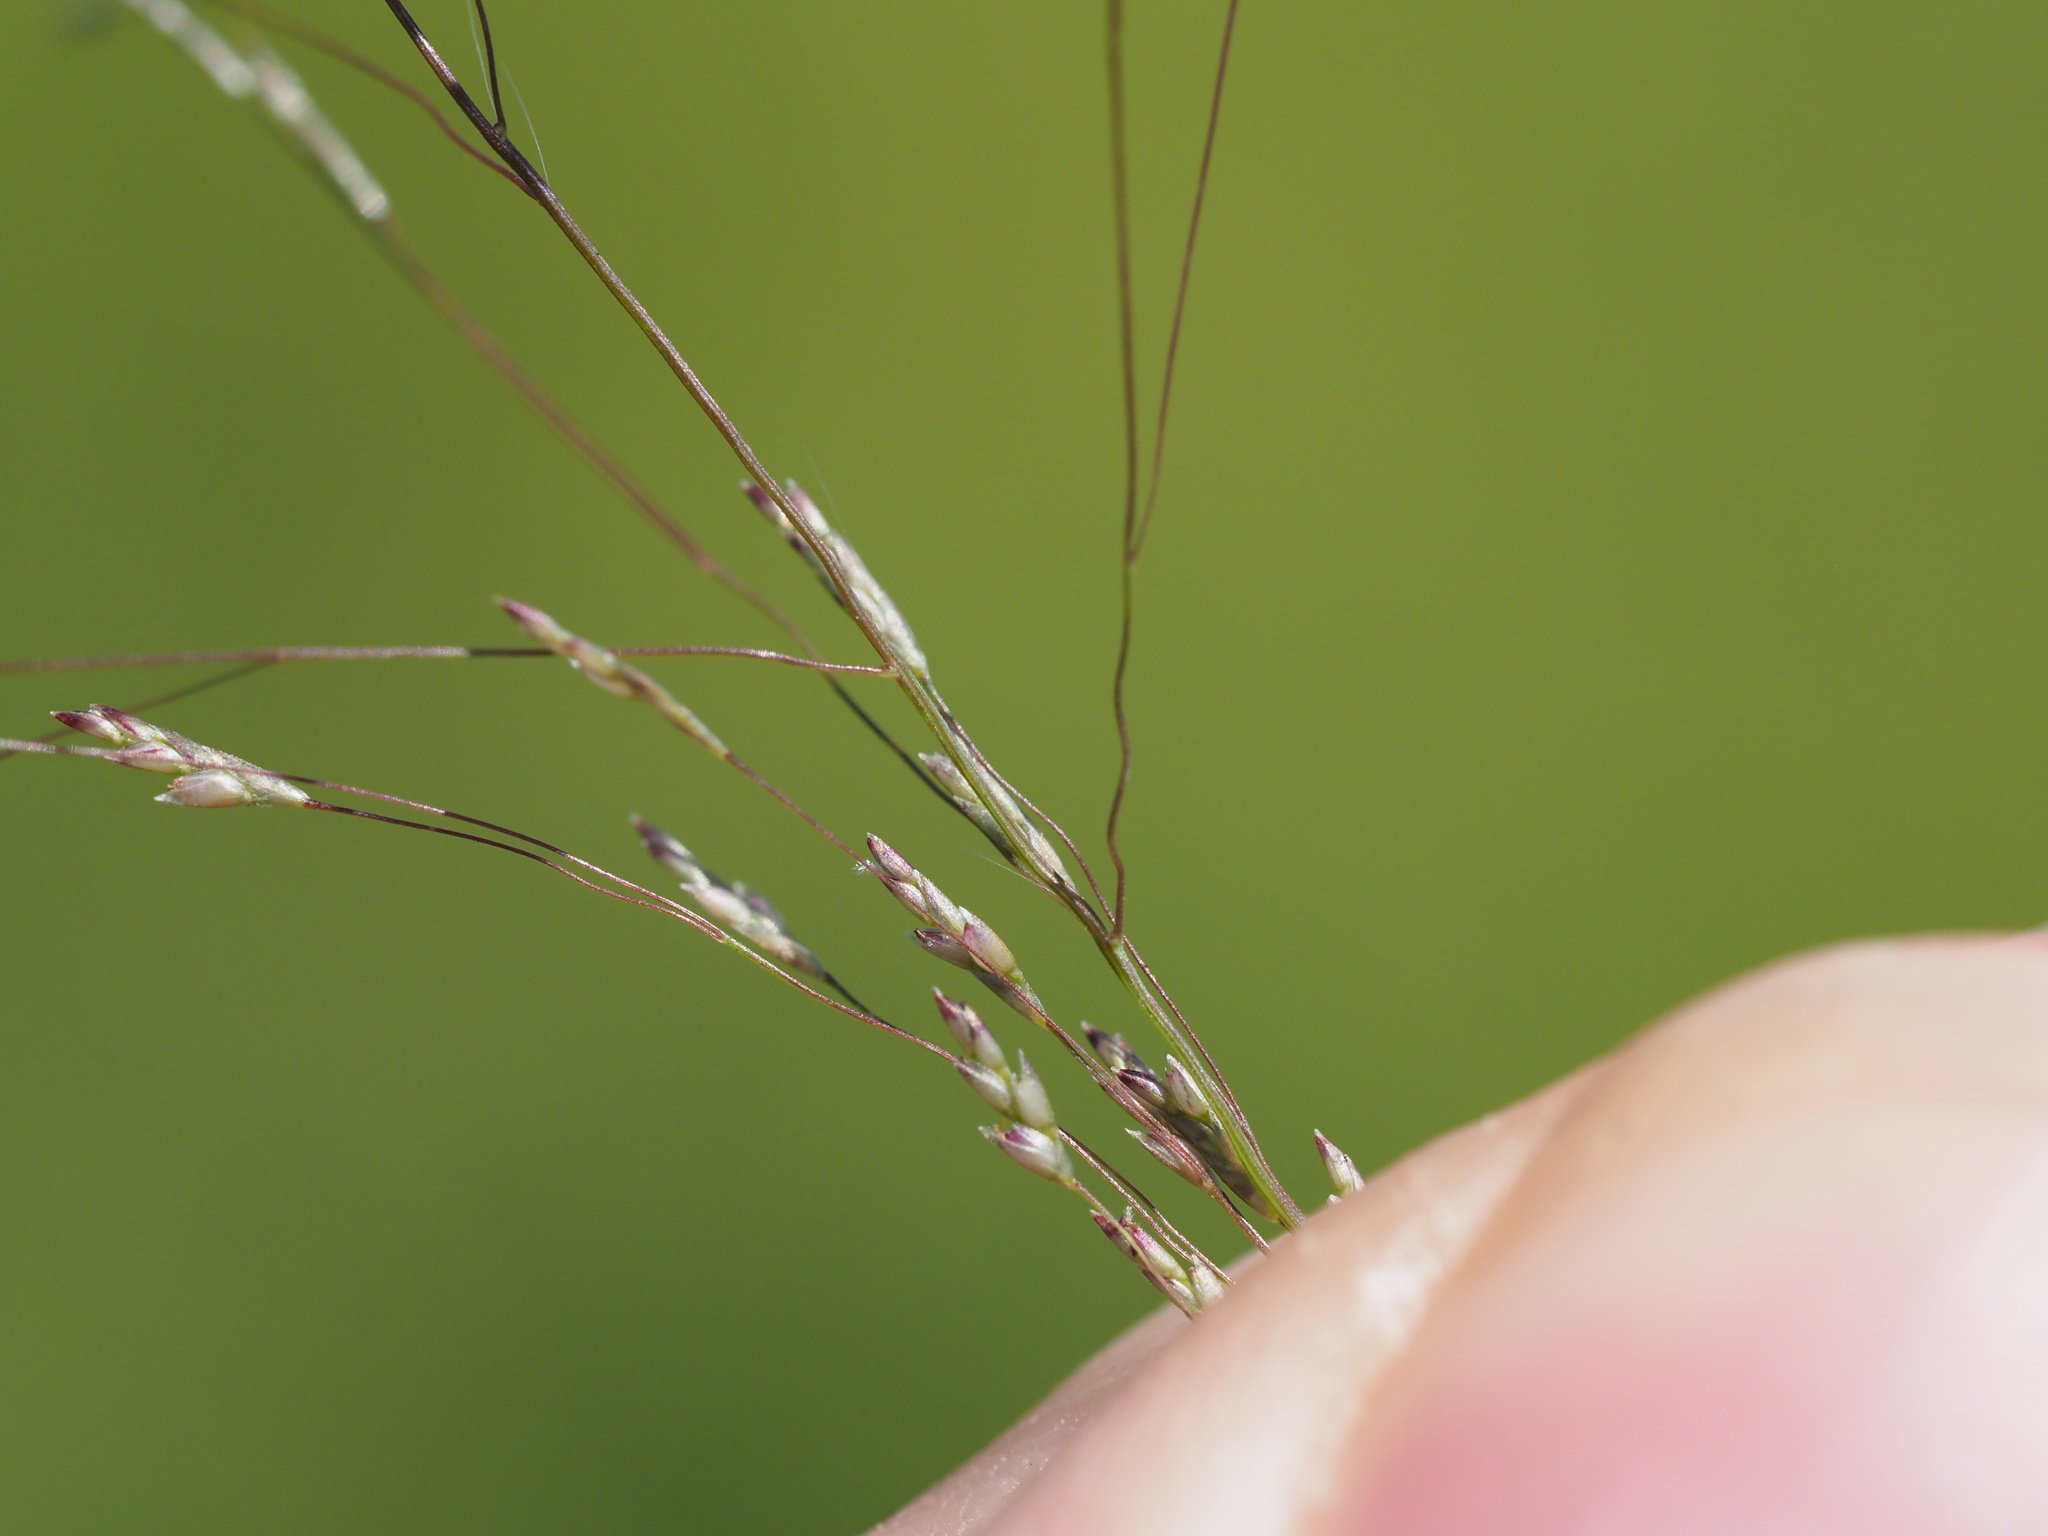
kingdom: Plantae
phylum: Tracheophyta
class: Liliopsida
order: Poales
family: Poaceae
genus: Eragrostis
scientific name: Eragrostis pilosa
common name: Indian lovegrass
